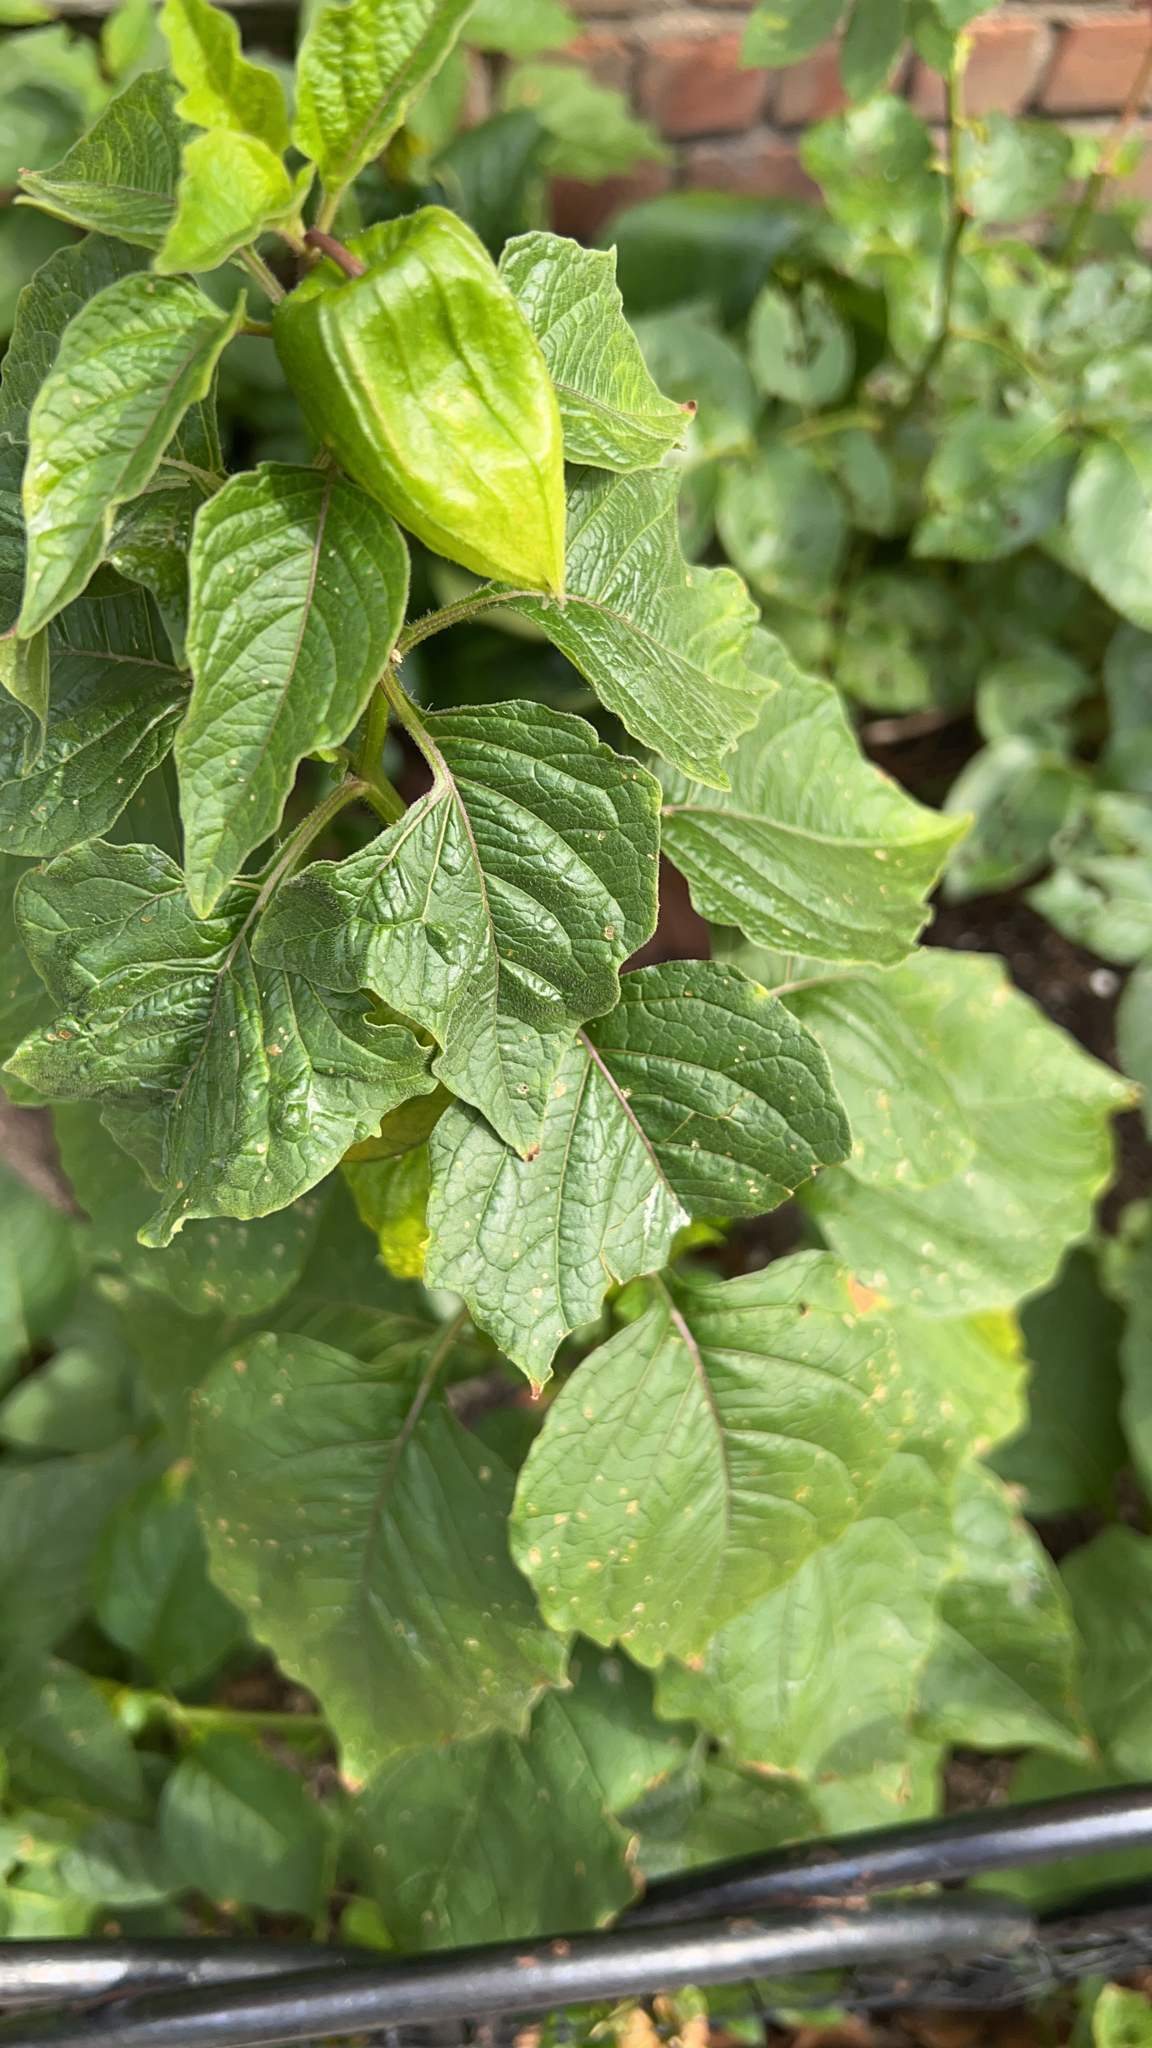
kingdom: Plantae
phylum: Tracheophyta
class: Magnoliopsida
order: Solanales
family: Solanaceae
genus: Alkekengi
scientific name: Alkekengi officinarum
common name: Japanese-lantern
